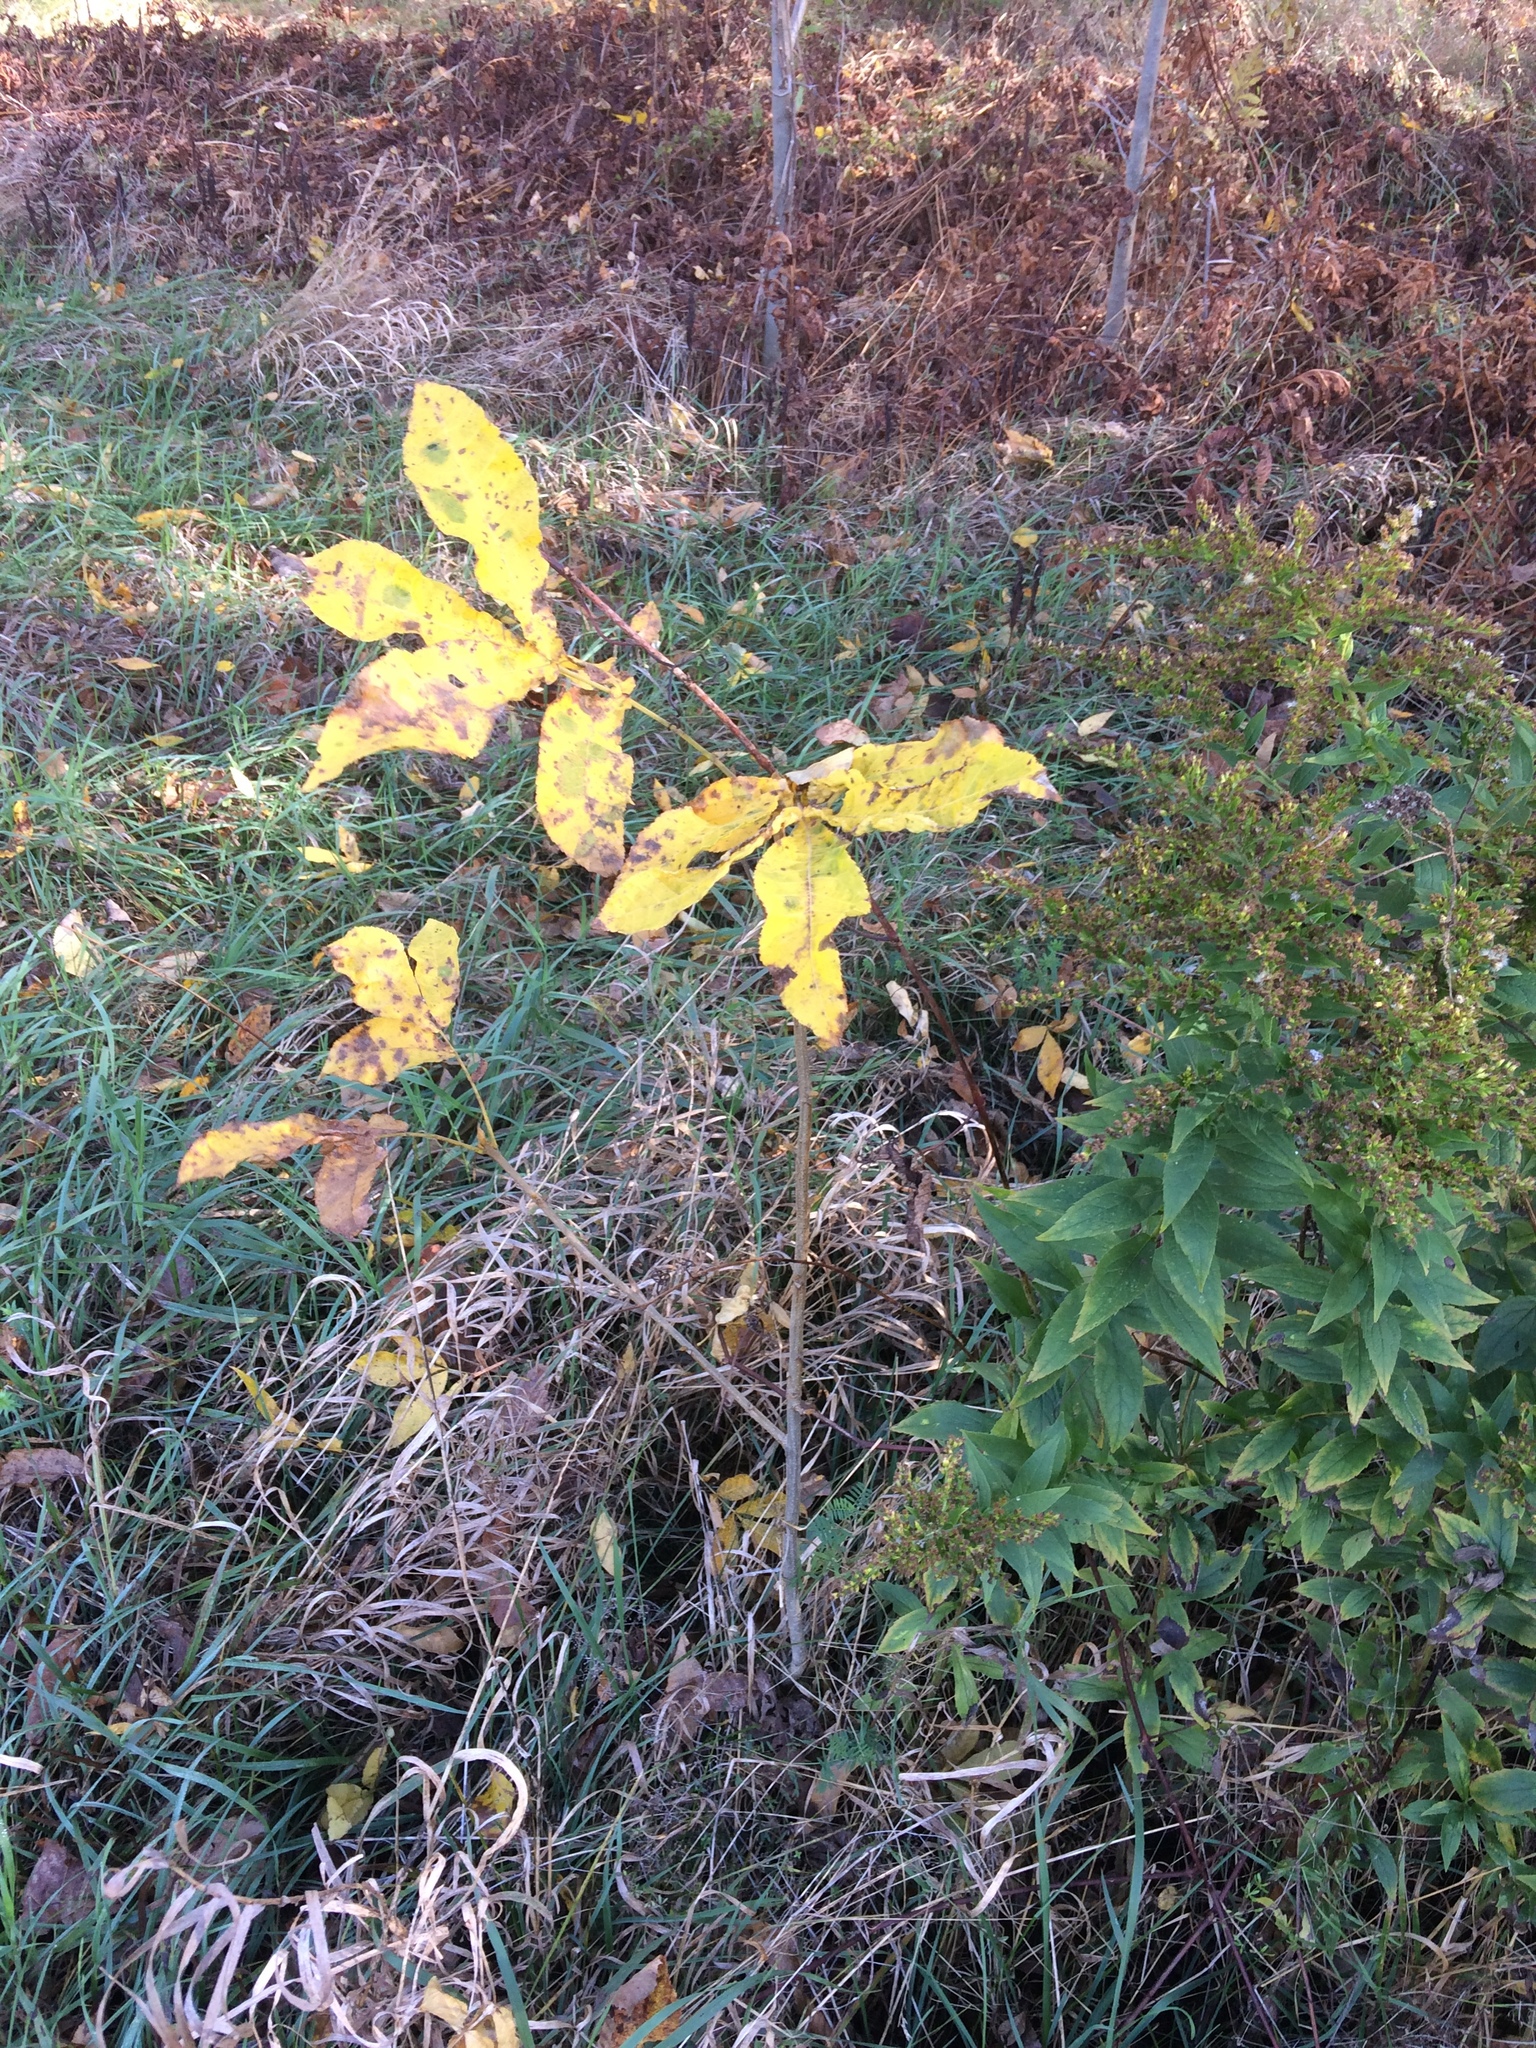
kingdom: Plantae
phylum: Tracheophyta
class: Magnoliopsida
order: Fagales
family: Juglandaceae
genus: Carya
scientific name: Carya cordiformis
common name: Bitternut hickory
